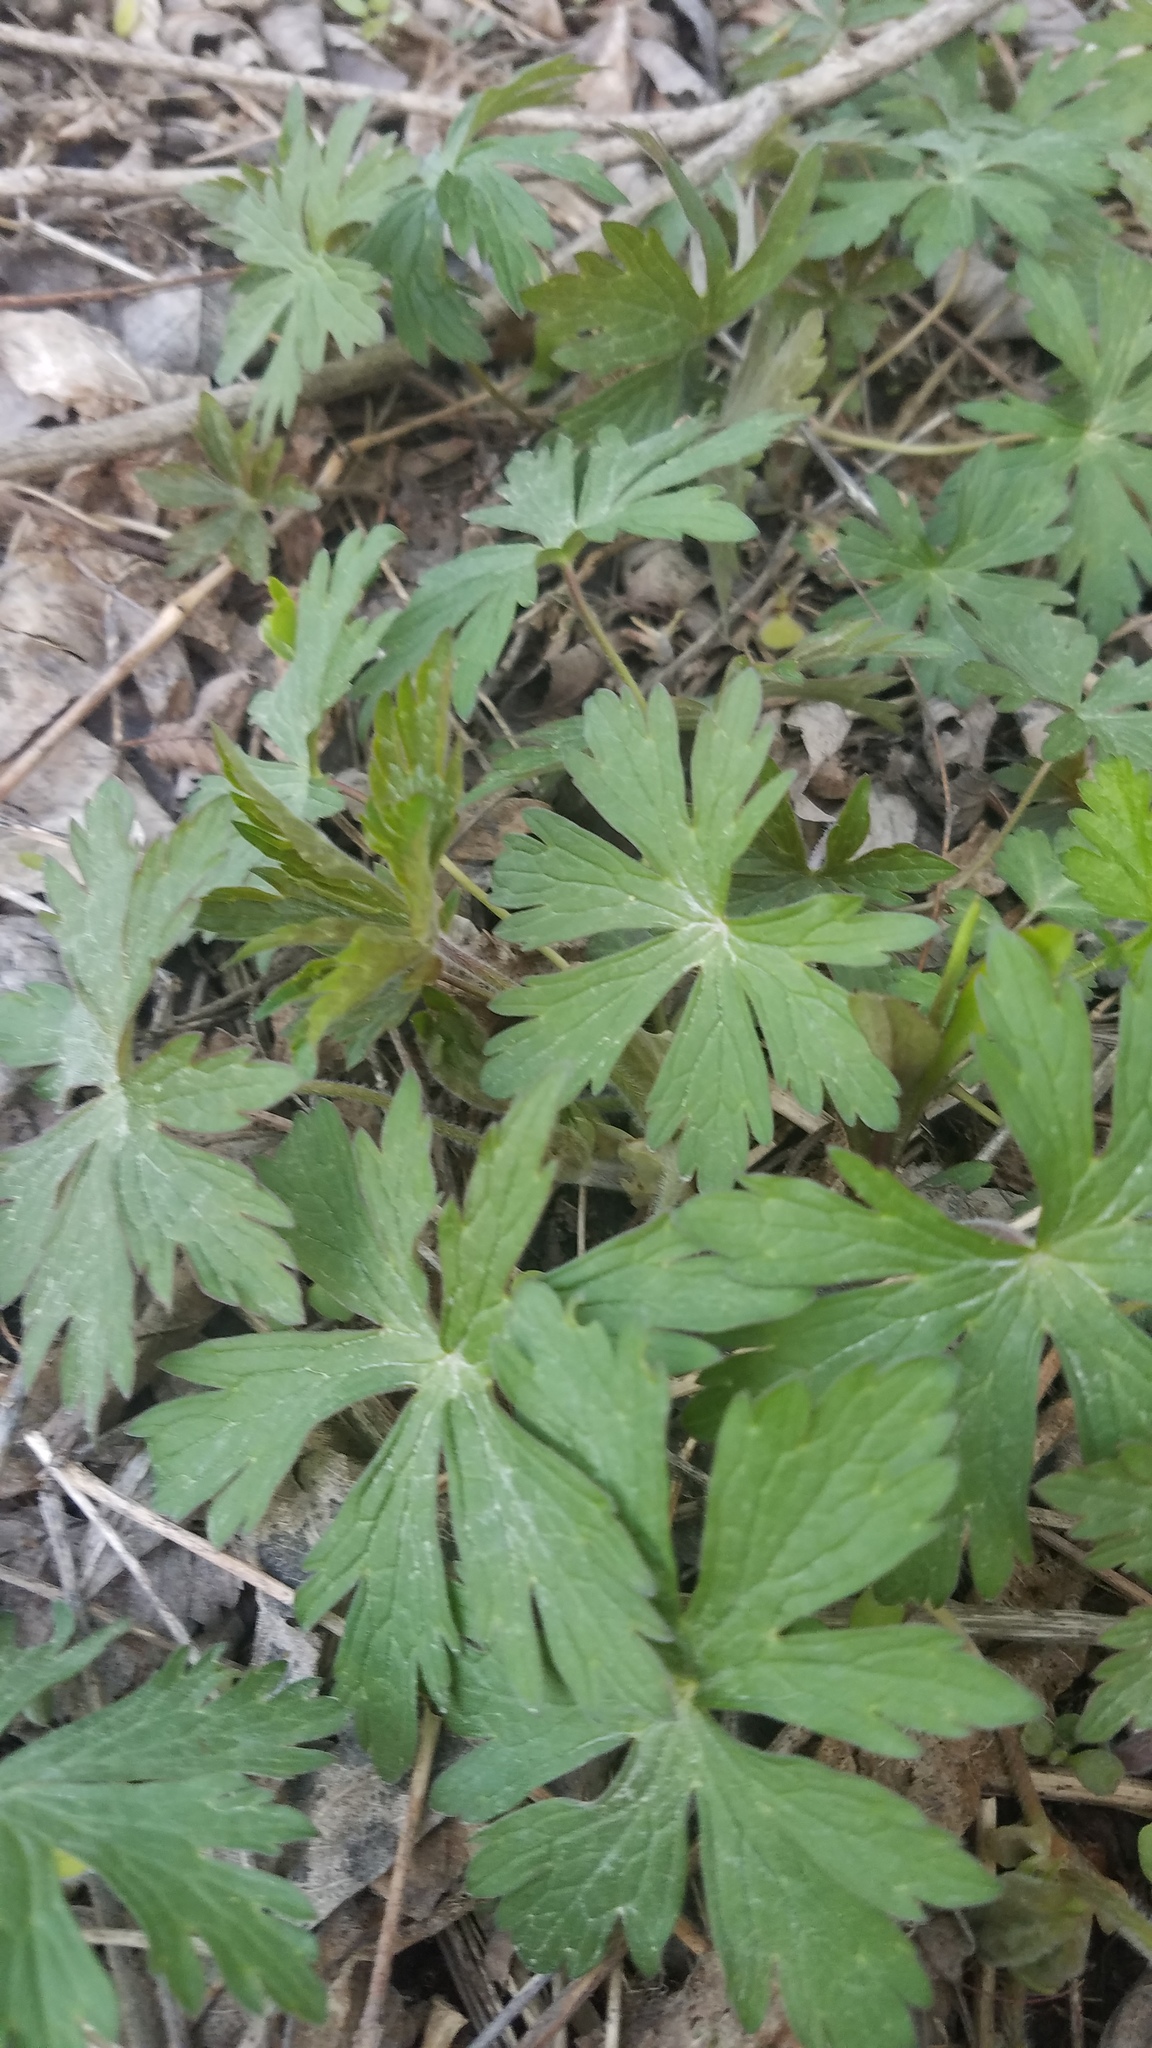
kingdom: Plantae
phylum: Tracheophyta
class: Magnoliopsida
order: Geraniales
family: Geraniaceae
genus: Geranium
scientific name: Geranium maculatum
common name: Spotted geranium
